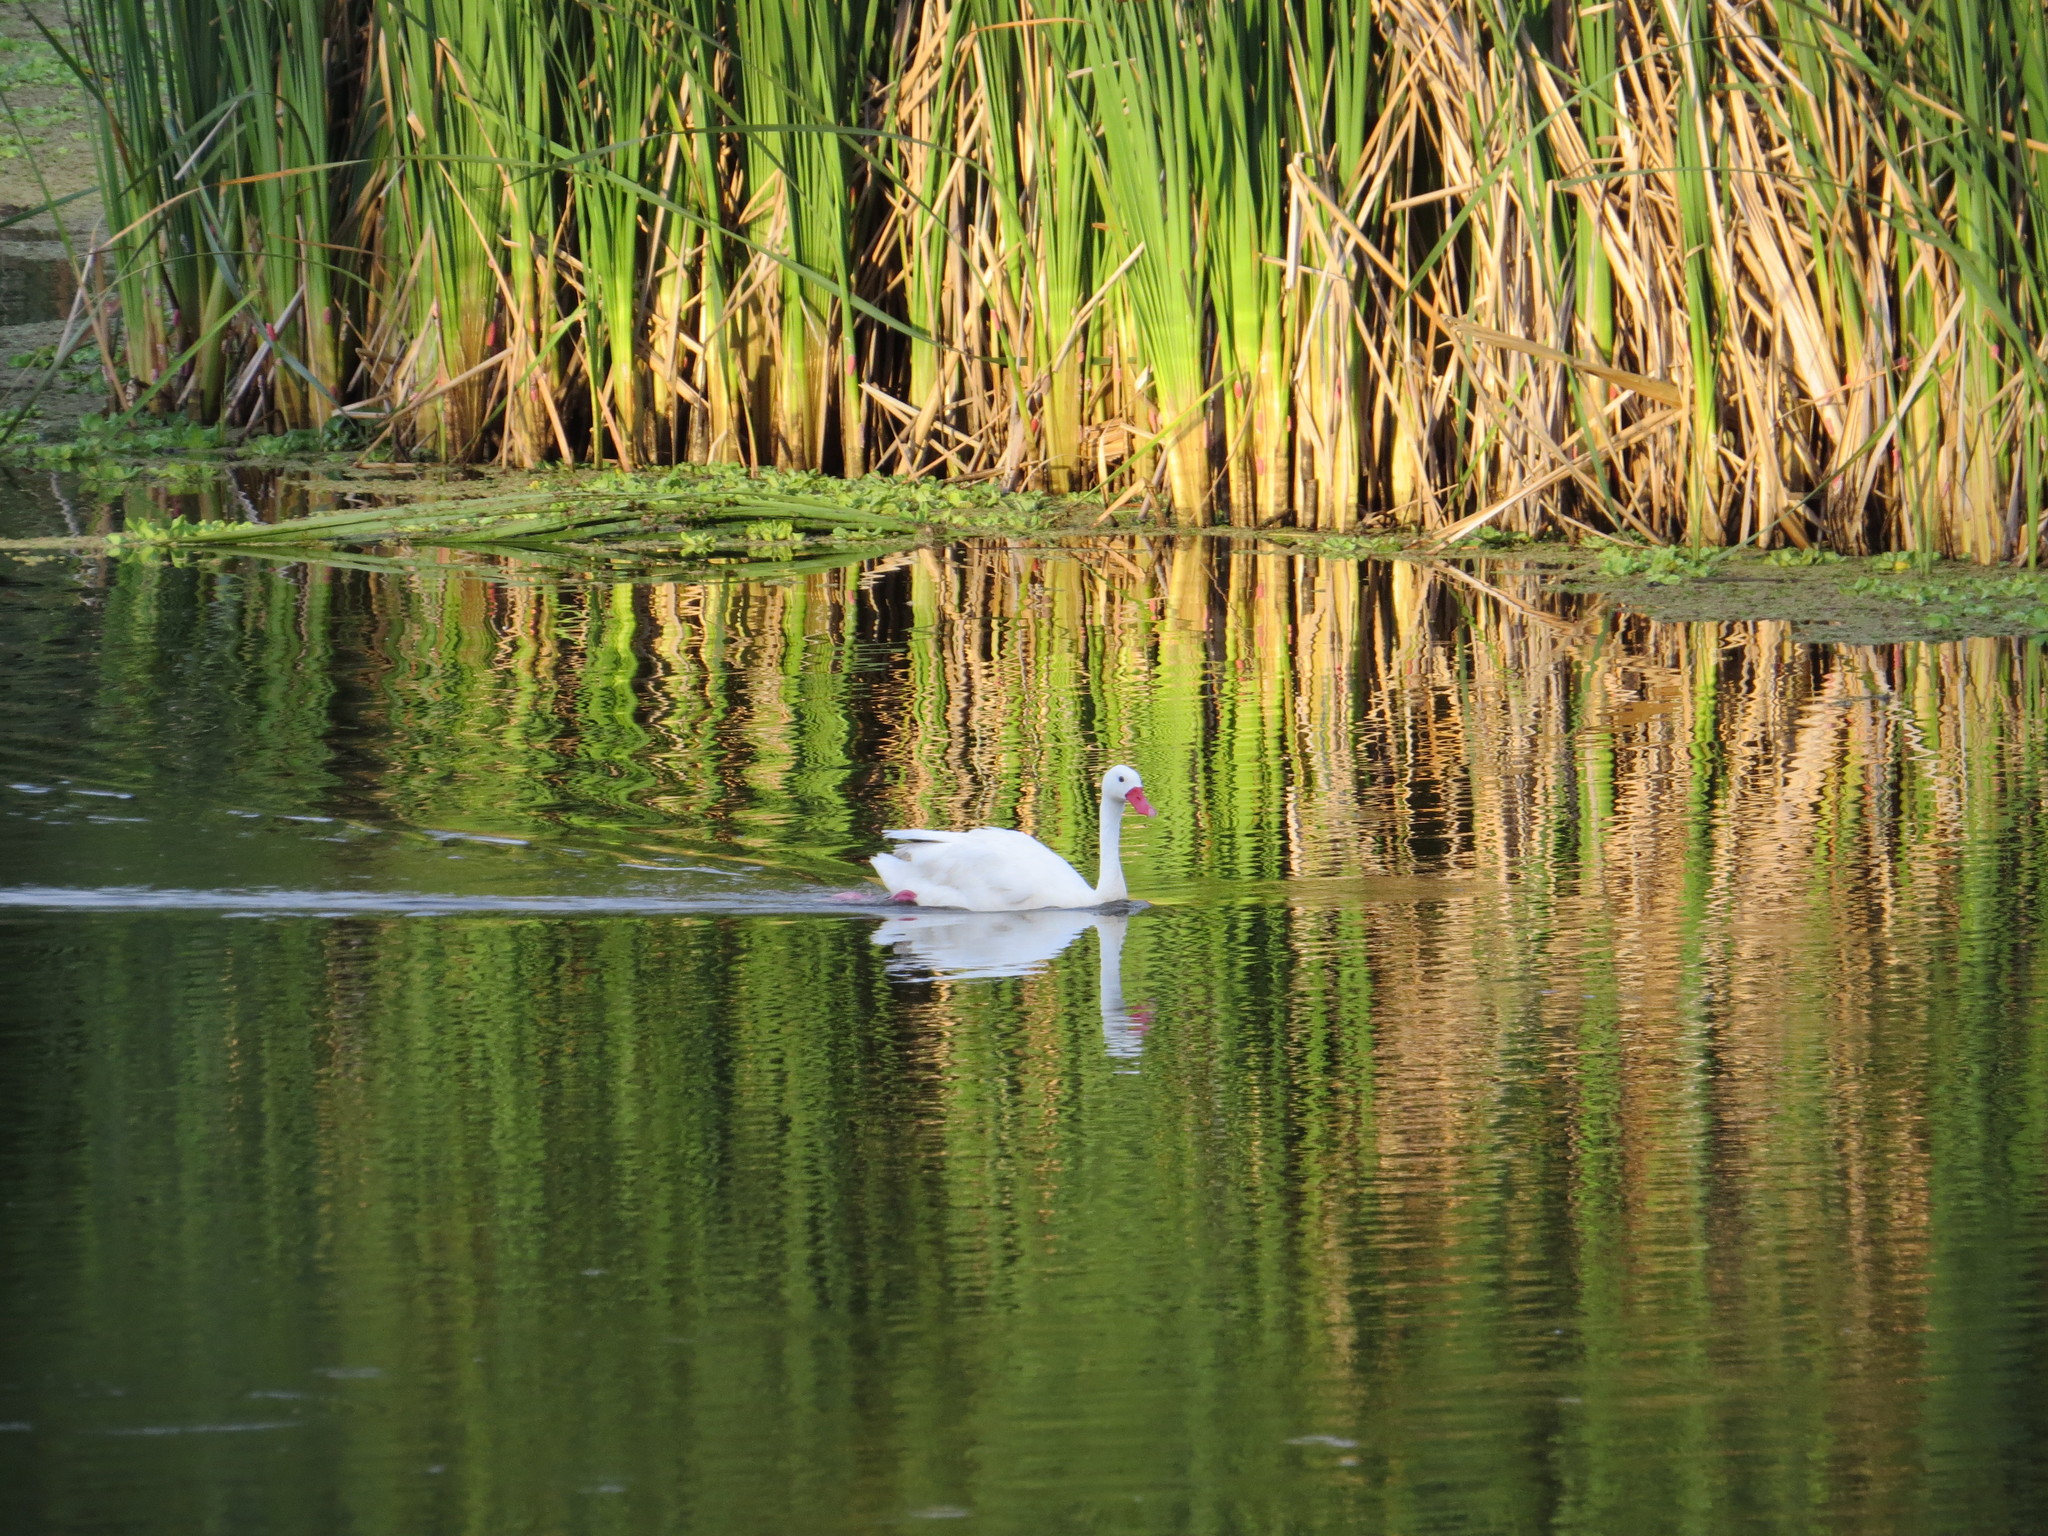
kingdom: Animalia
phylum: Chordata
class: Aves
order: Anseriformes
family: Anatidae
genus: Coscoroba
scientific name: Coscoroba coscoroba
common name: Coscoroba swan
